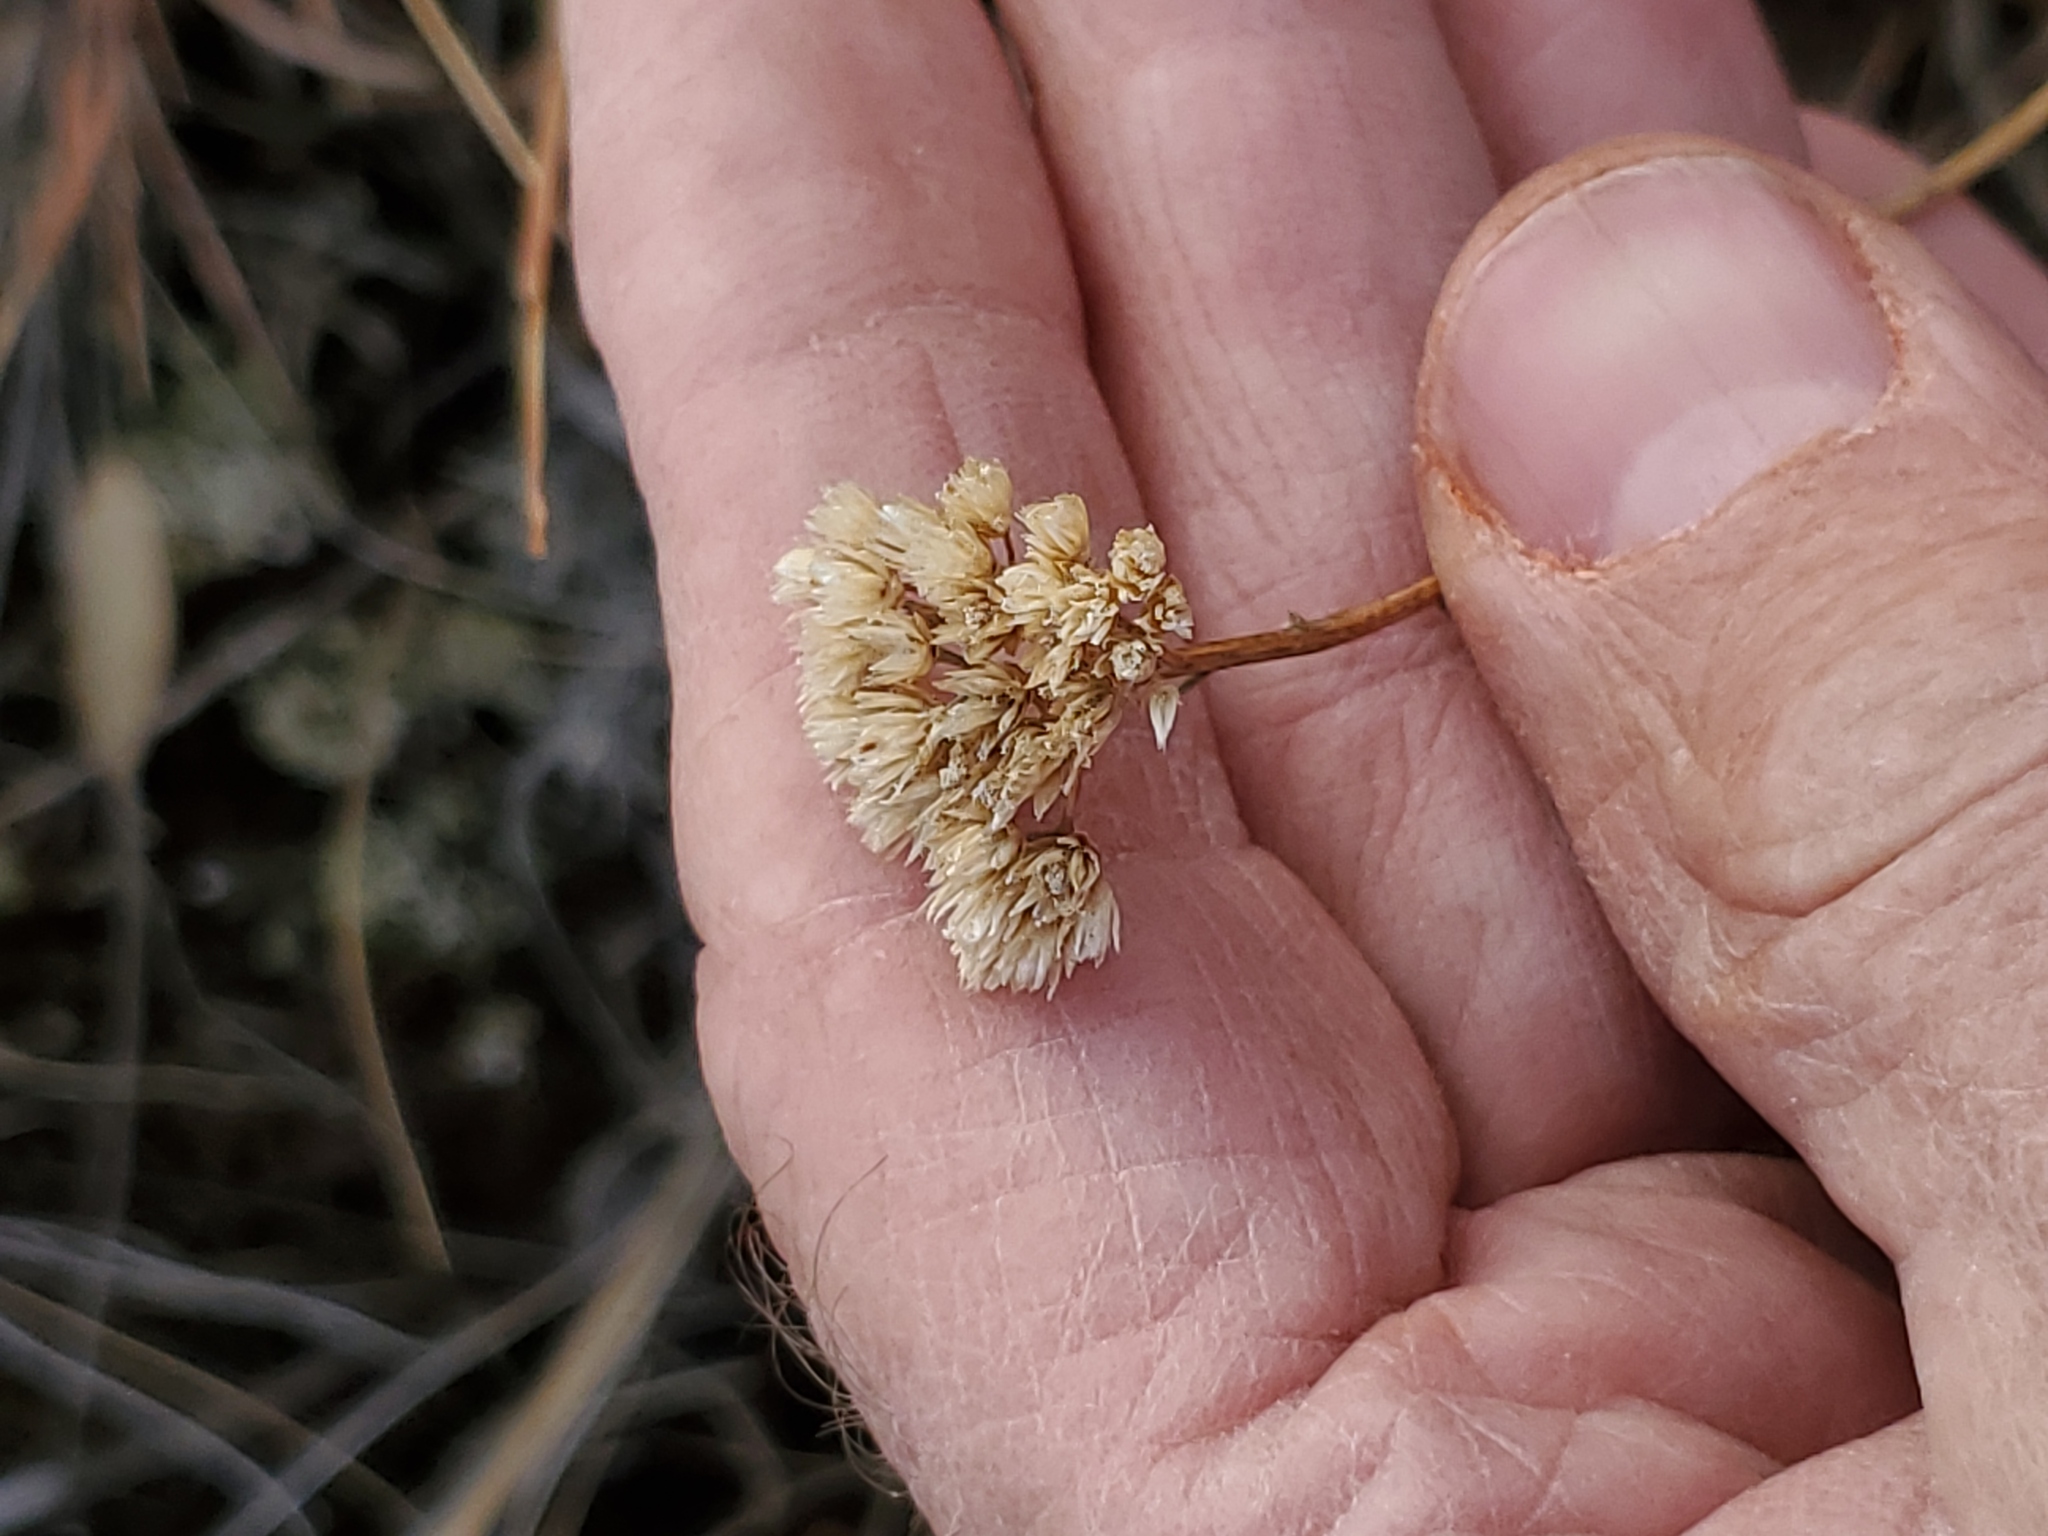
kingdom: Plantae
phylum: Tracheophyta
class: Magnoliopsida
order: Asterales
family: Asteraceae
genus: Achillea
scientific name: Achillea millefolium
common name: Yarrow
